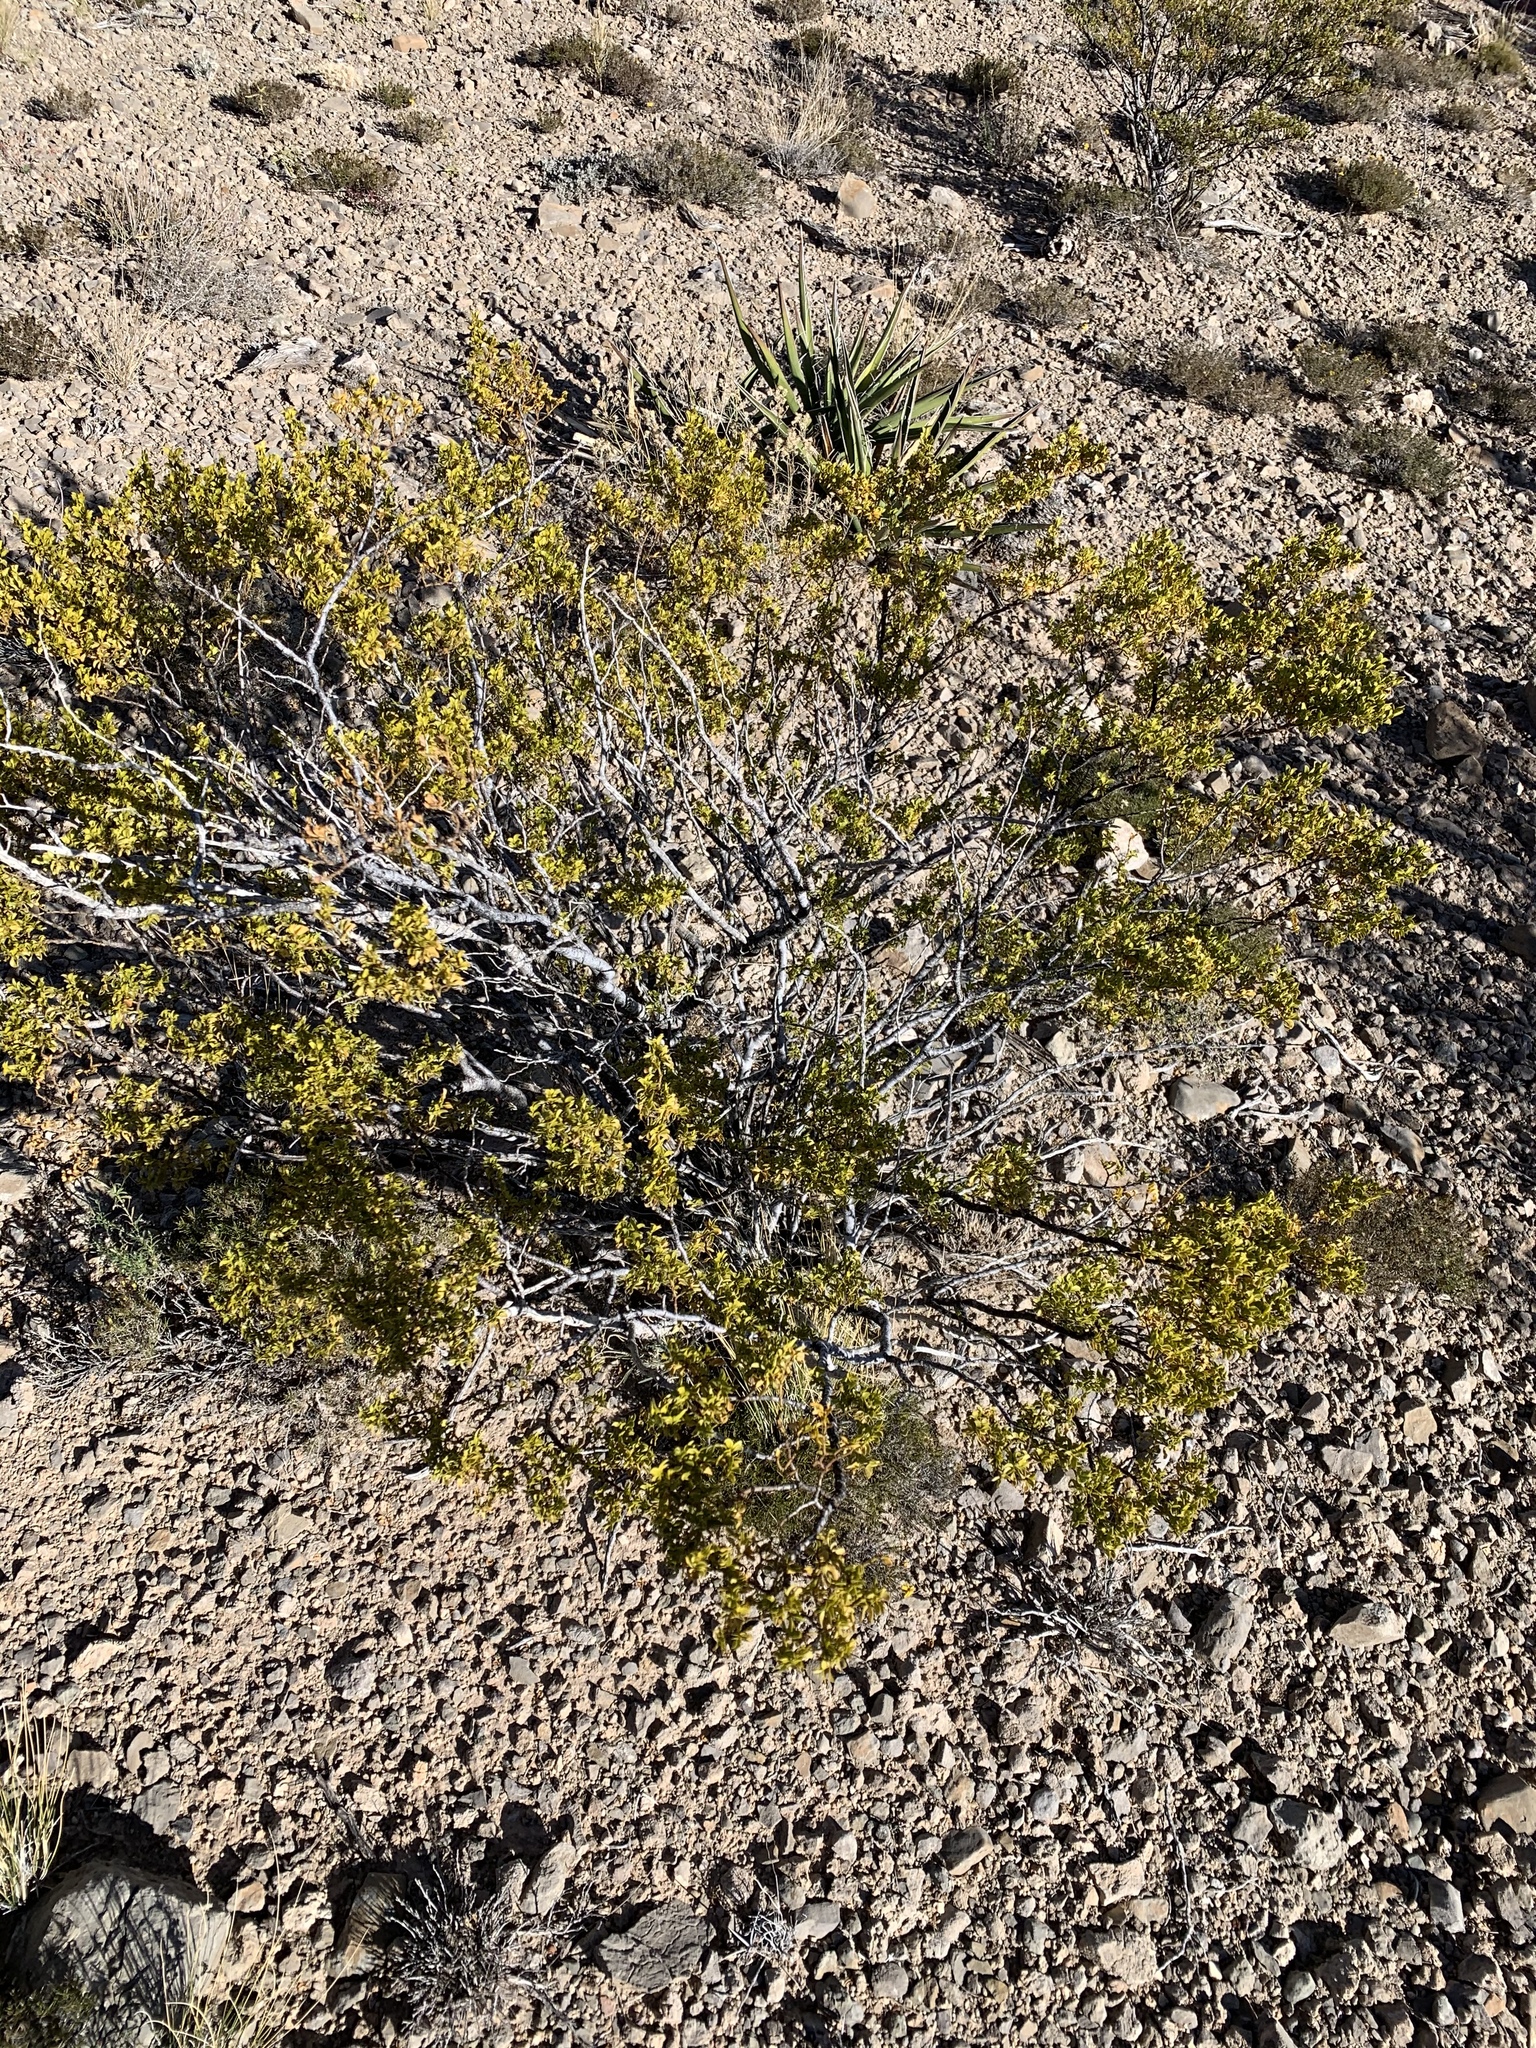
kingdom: Plantae
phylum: Tracheophyta
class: Magnoliopsida
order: Zygophyllales
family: Zygophyllaceae
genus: Larrea
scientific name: Larrea tridentata
